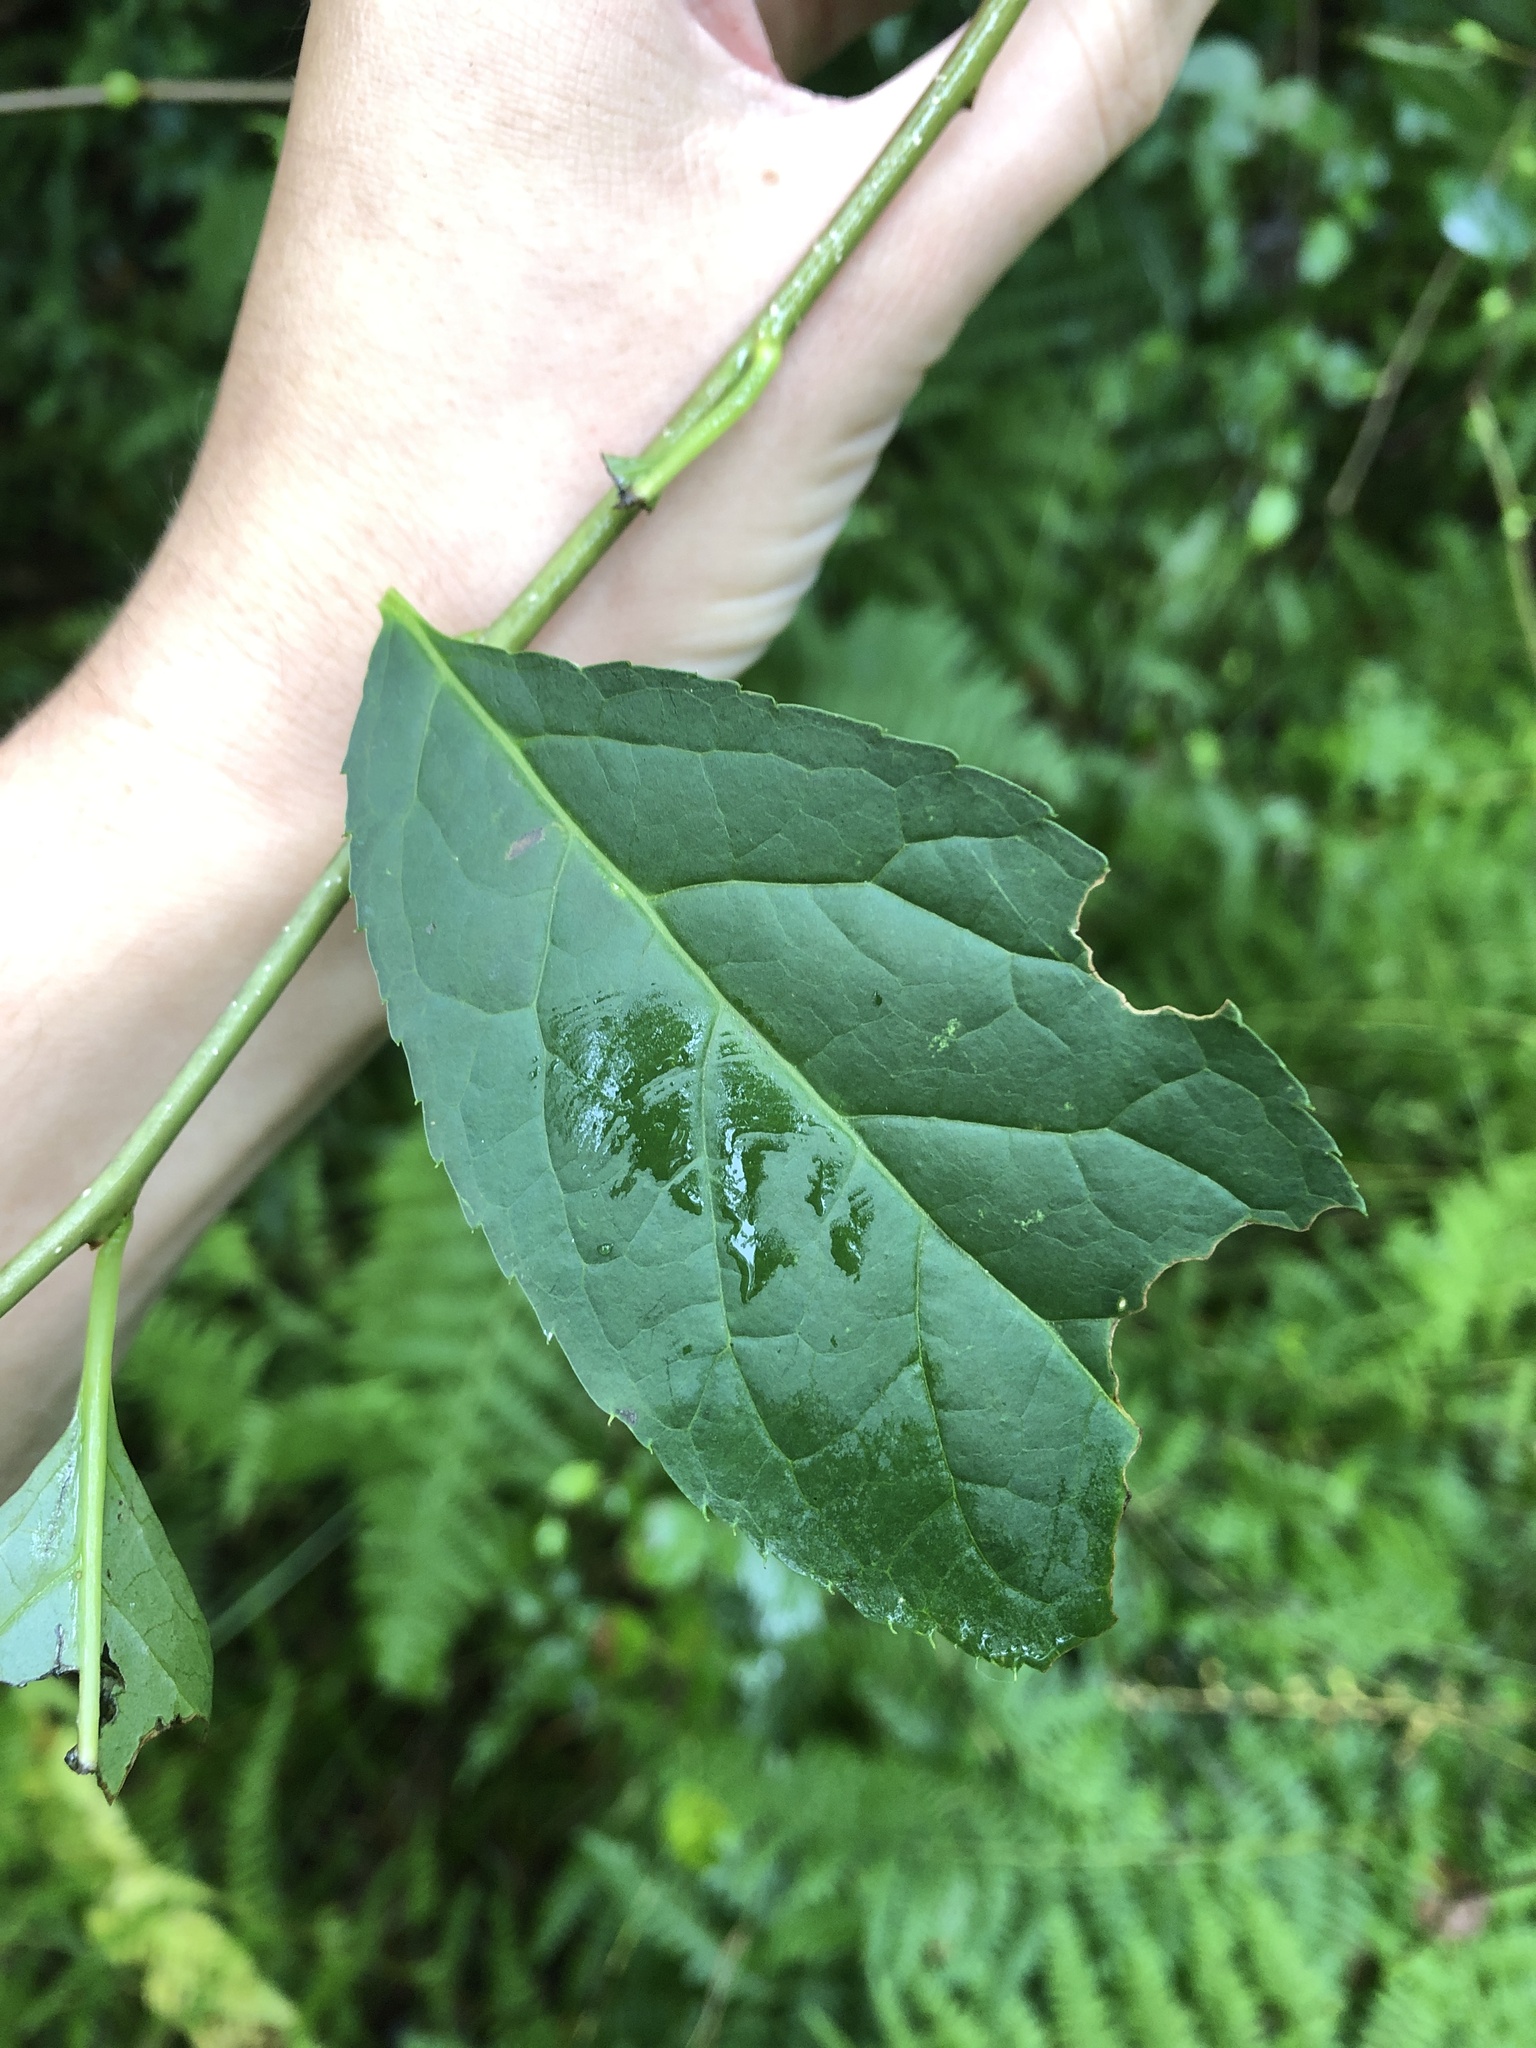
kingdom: Plantae
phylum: Tracheophyta
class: Magnoliopsida
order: Aquifoliales
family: Aquifoliaceae
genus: Ilex
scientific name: Ilex montana
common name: Mountain winterberry
